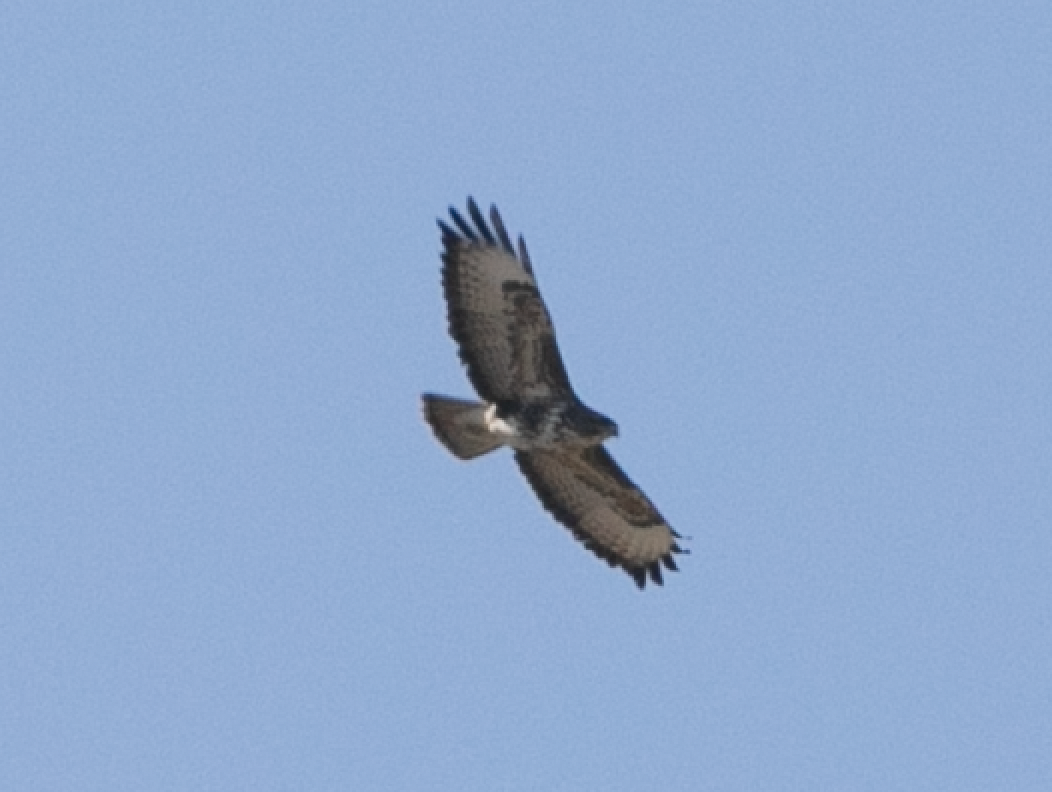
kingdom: Animalia
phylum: Chordata
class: Aves
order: Accipitriformes
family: Accipitridae
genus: Buteo
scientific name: Buteo buteo
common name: Common buzzard
